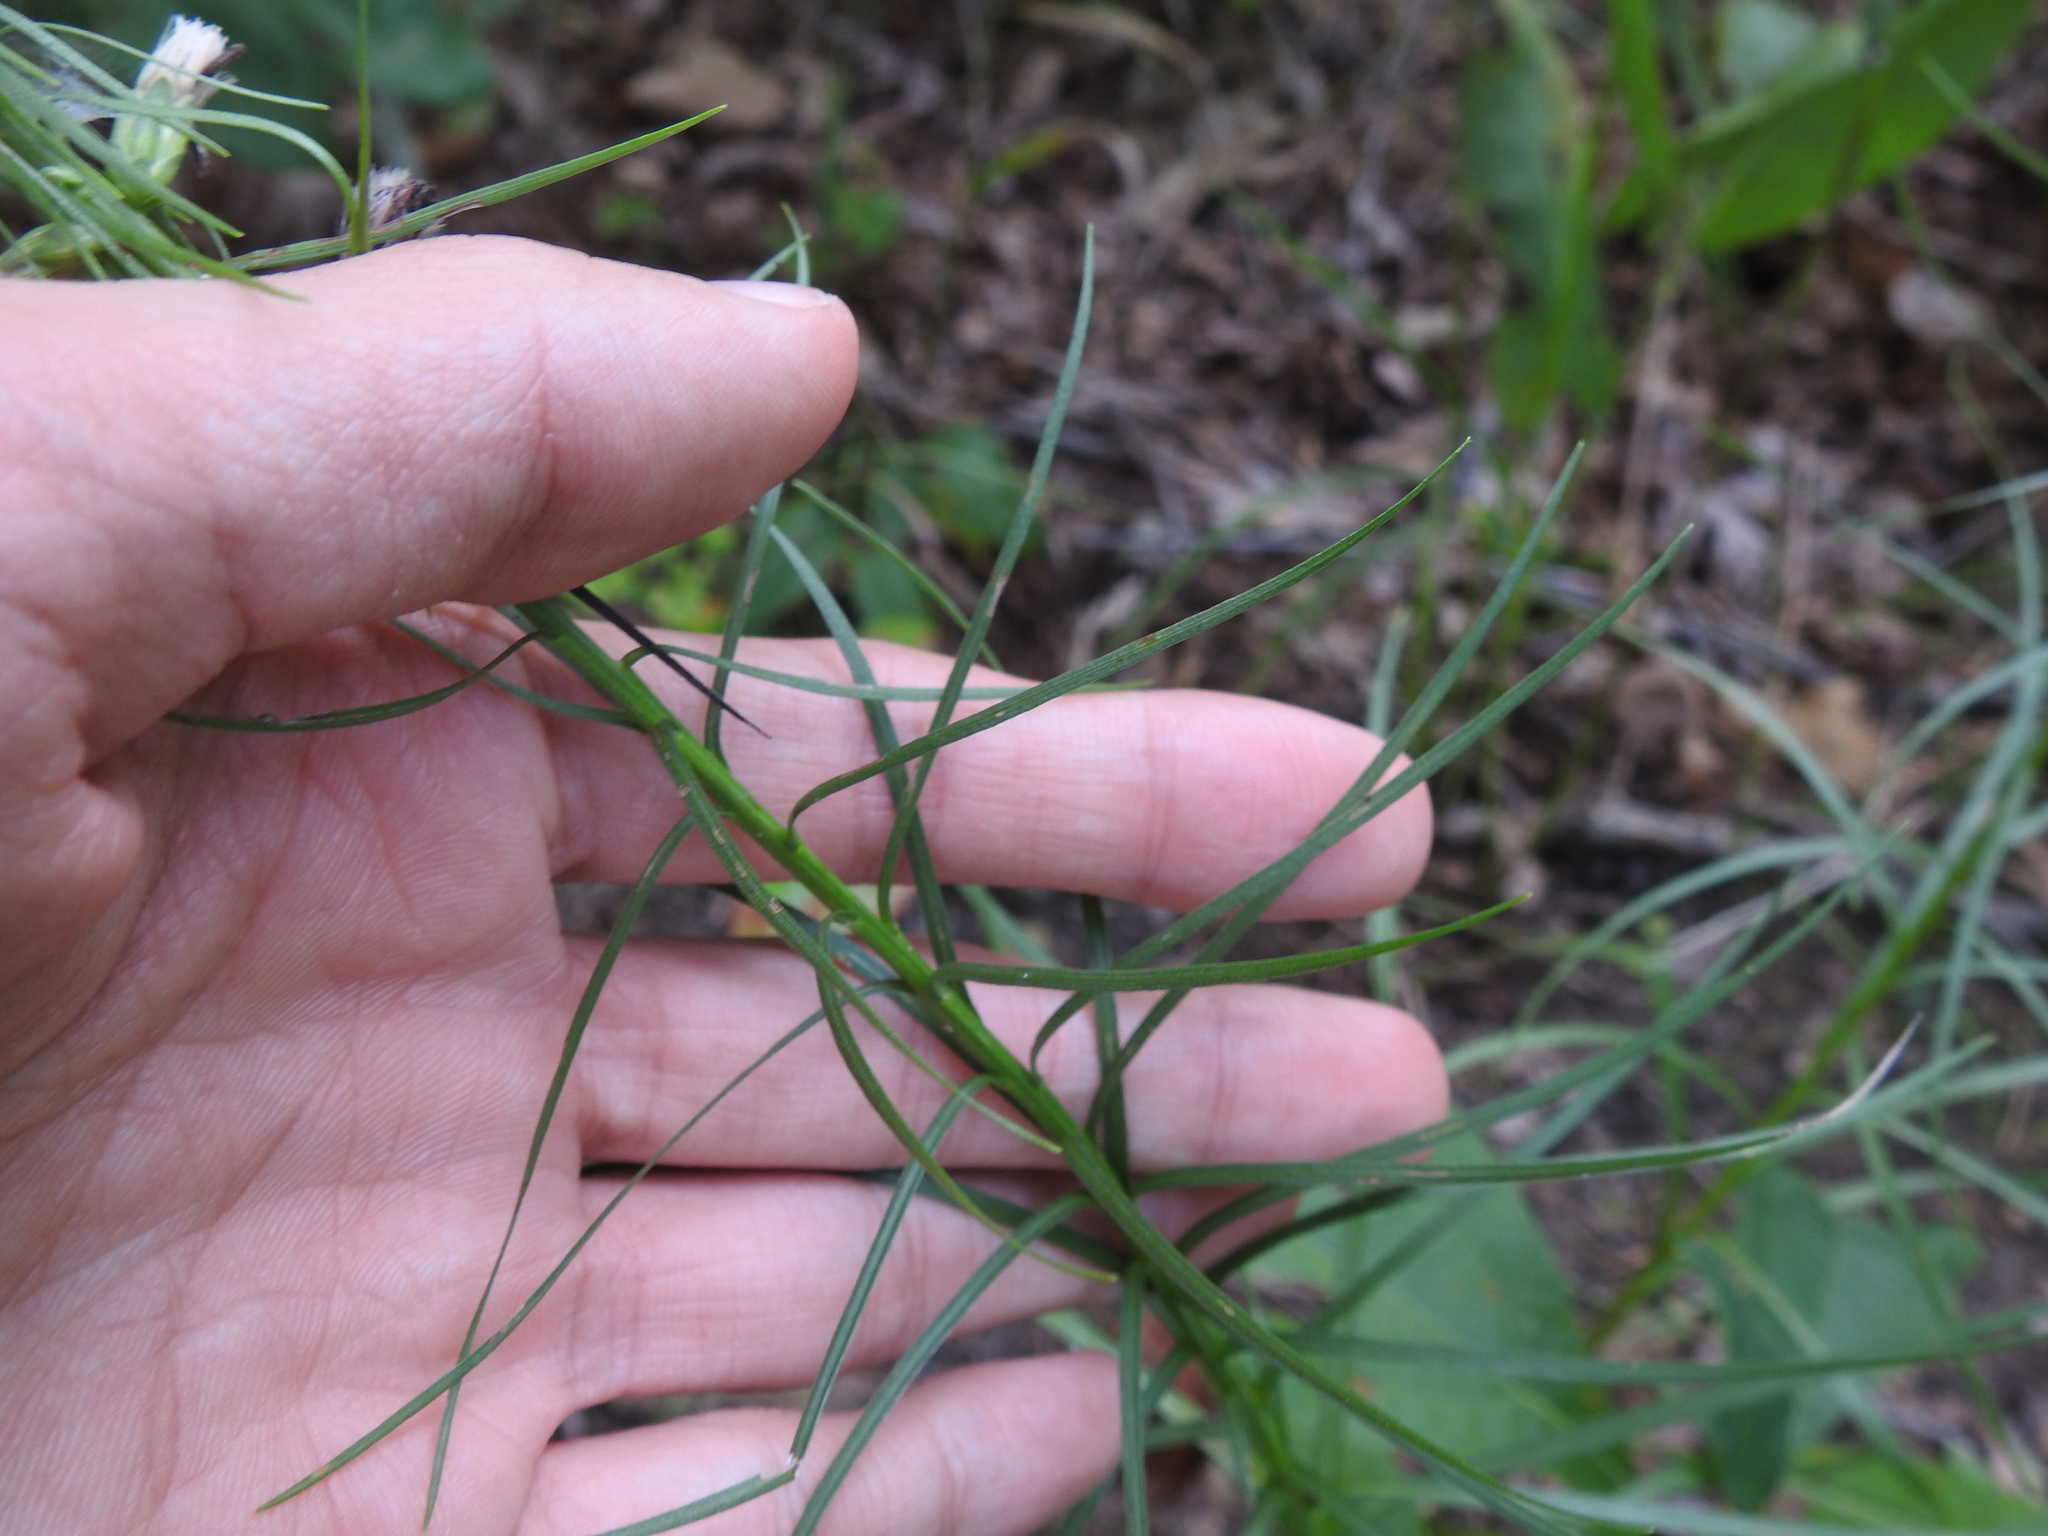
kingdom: Plantae
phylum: Tracheophyta
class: Magnoliopsida
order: Asterales
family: Asteraceae
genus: Liatris
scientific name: Liatris spicata
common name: Florist gayfeather
